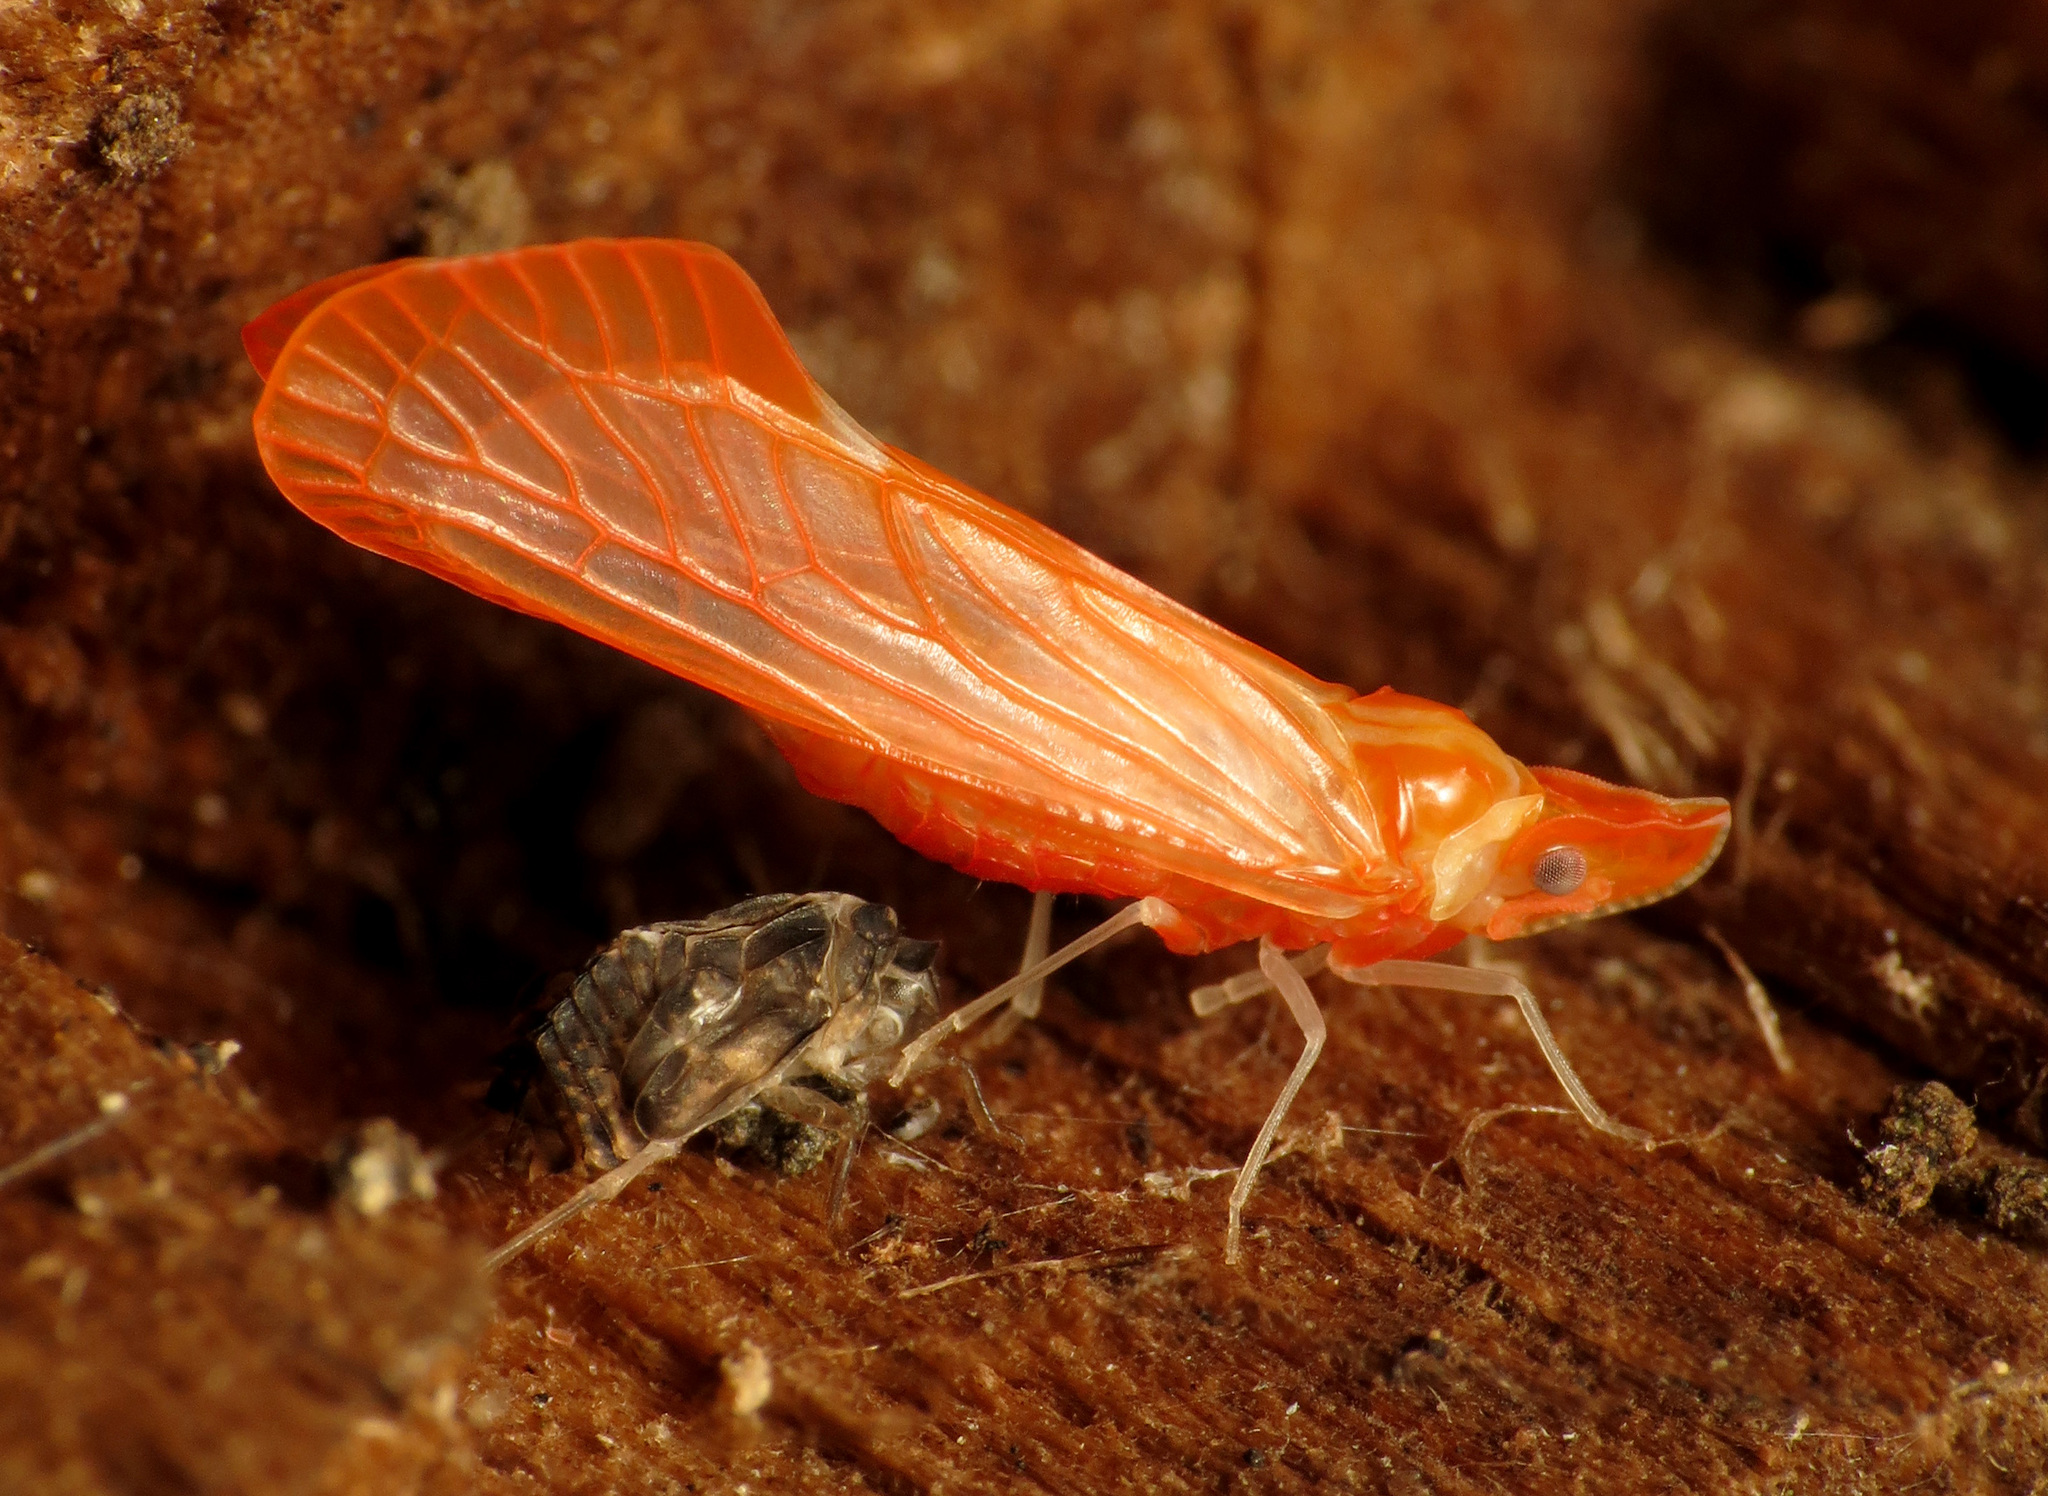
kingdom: Animalia
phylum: Arthropoda
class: Insecta
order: Hemiptera
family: Derbidae
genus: Apache
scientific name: Apache degeeri
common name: Red-fanned planthopper
